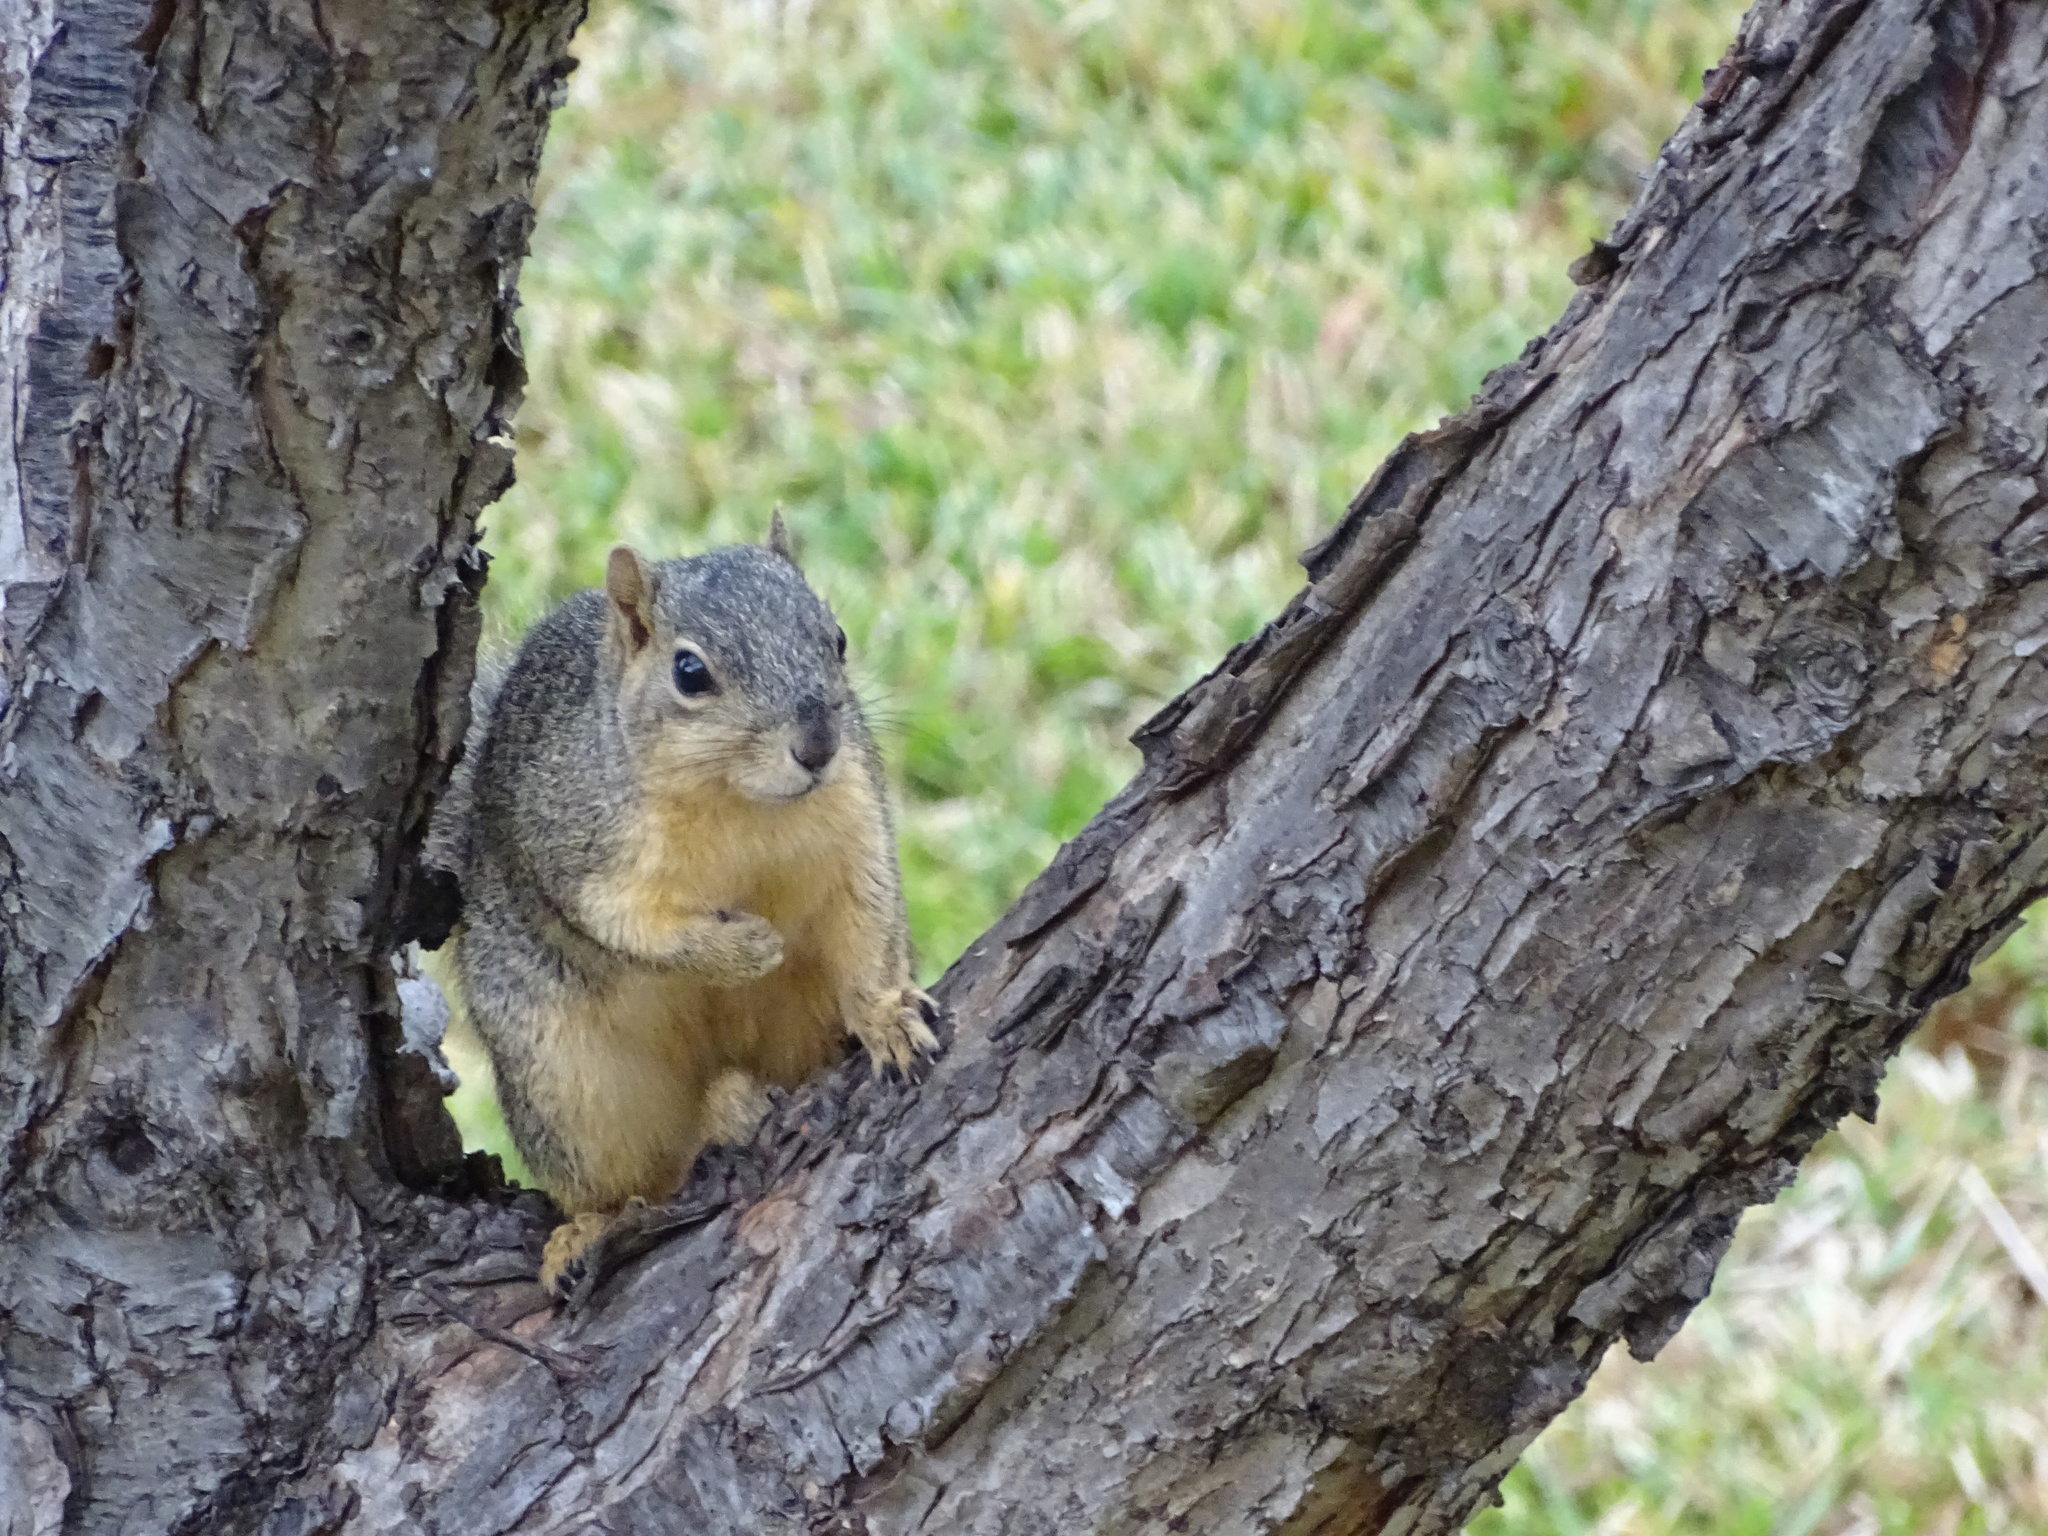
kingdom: Animalia
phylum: Chordata
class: Mammalia
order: Rodentia
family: Sciuridae
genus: Sciurus
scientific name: Sciurus niger
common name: Fox squirrel
